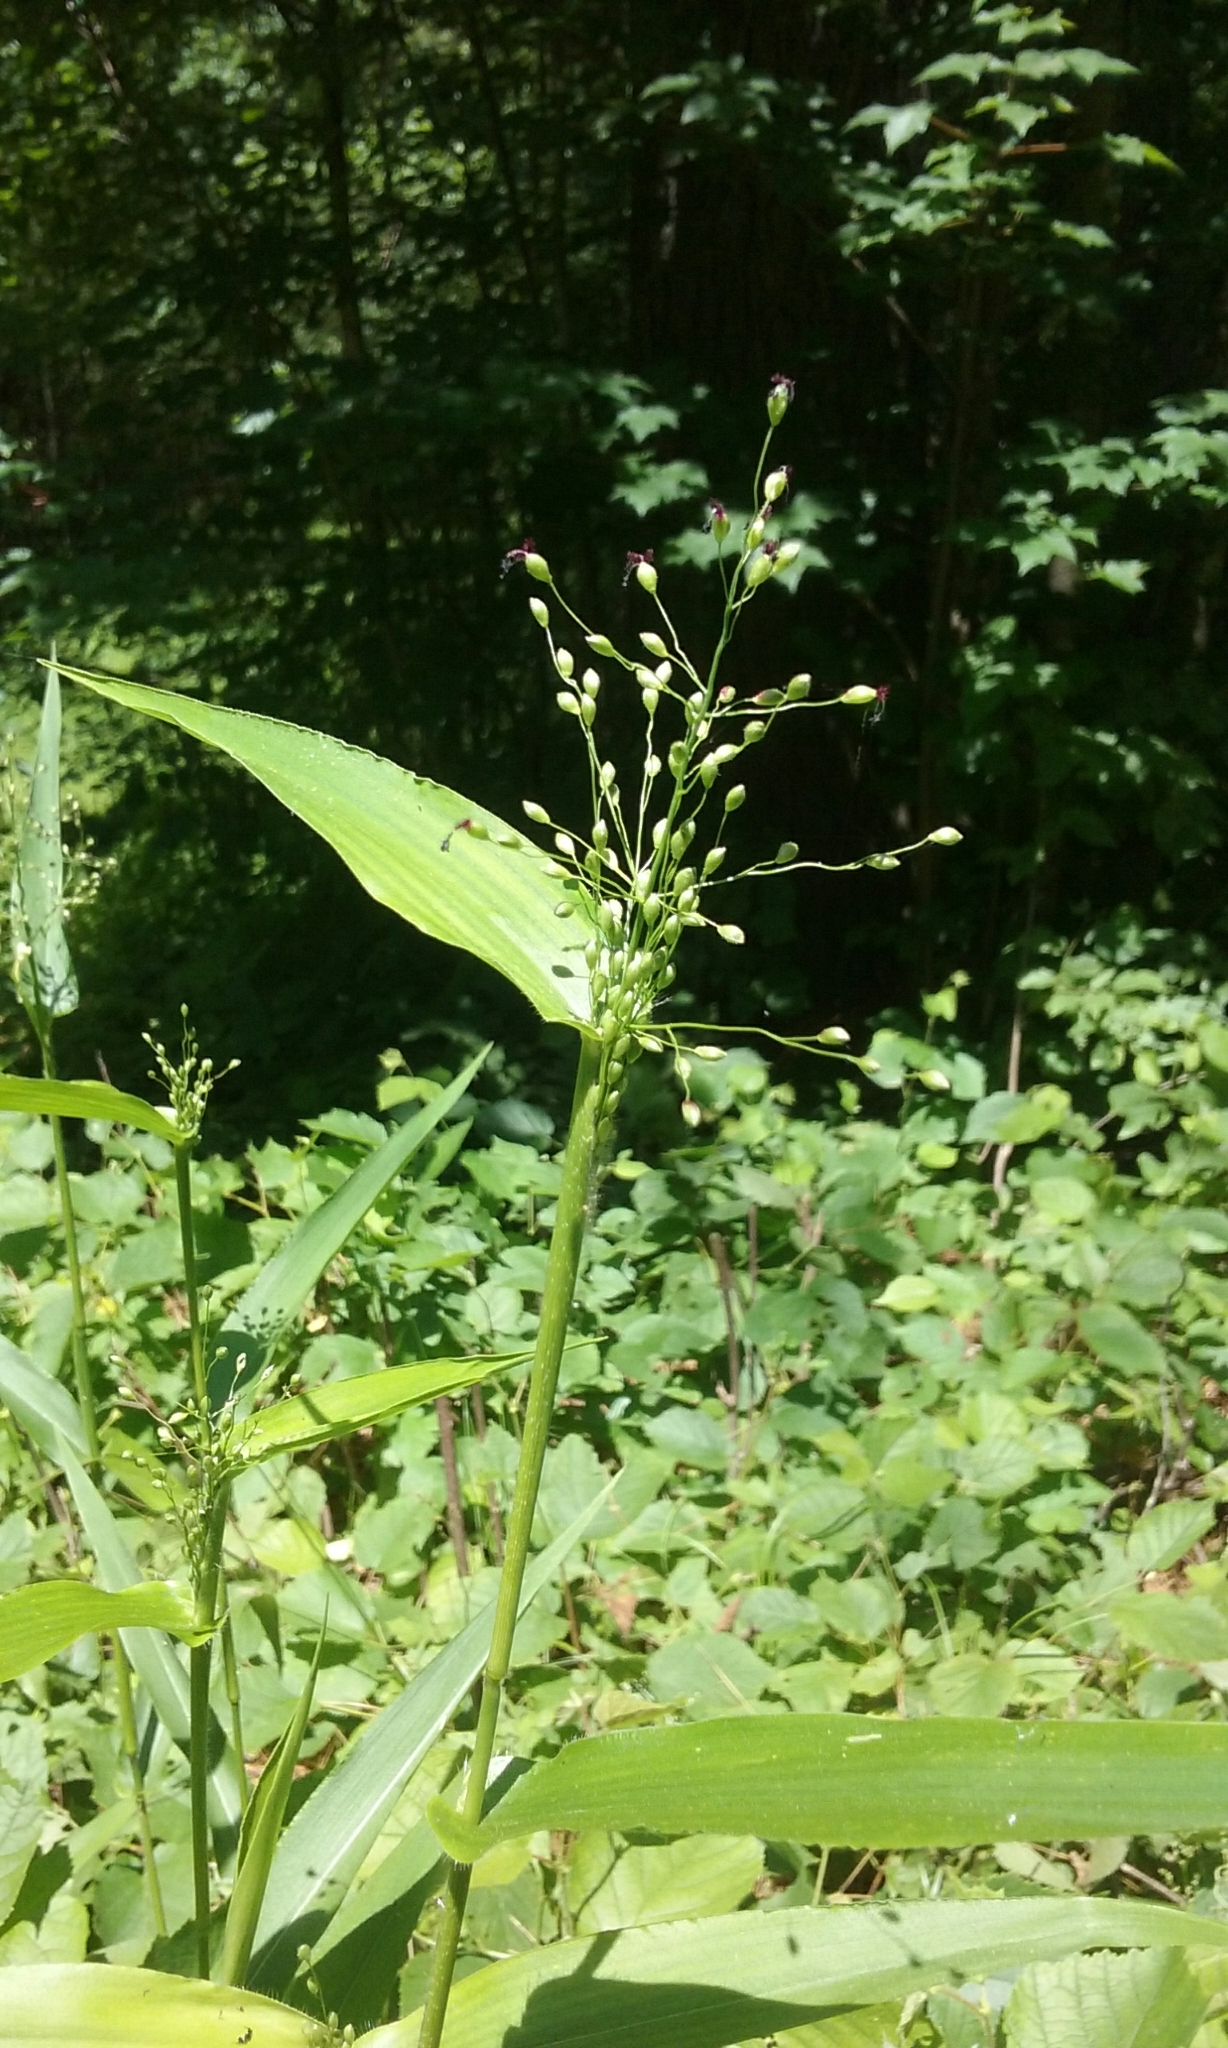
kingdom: Plantae
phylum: Tracheophyta
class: Liliopsida
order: Poales
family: Poaceae
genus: Dichanthelium
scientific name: Dichanthelium
